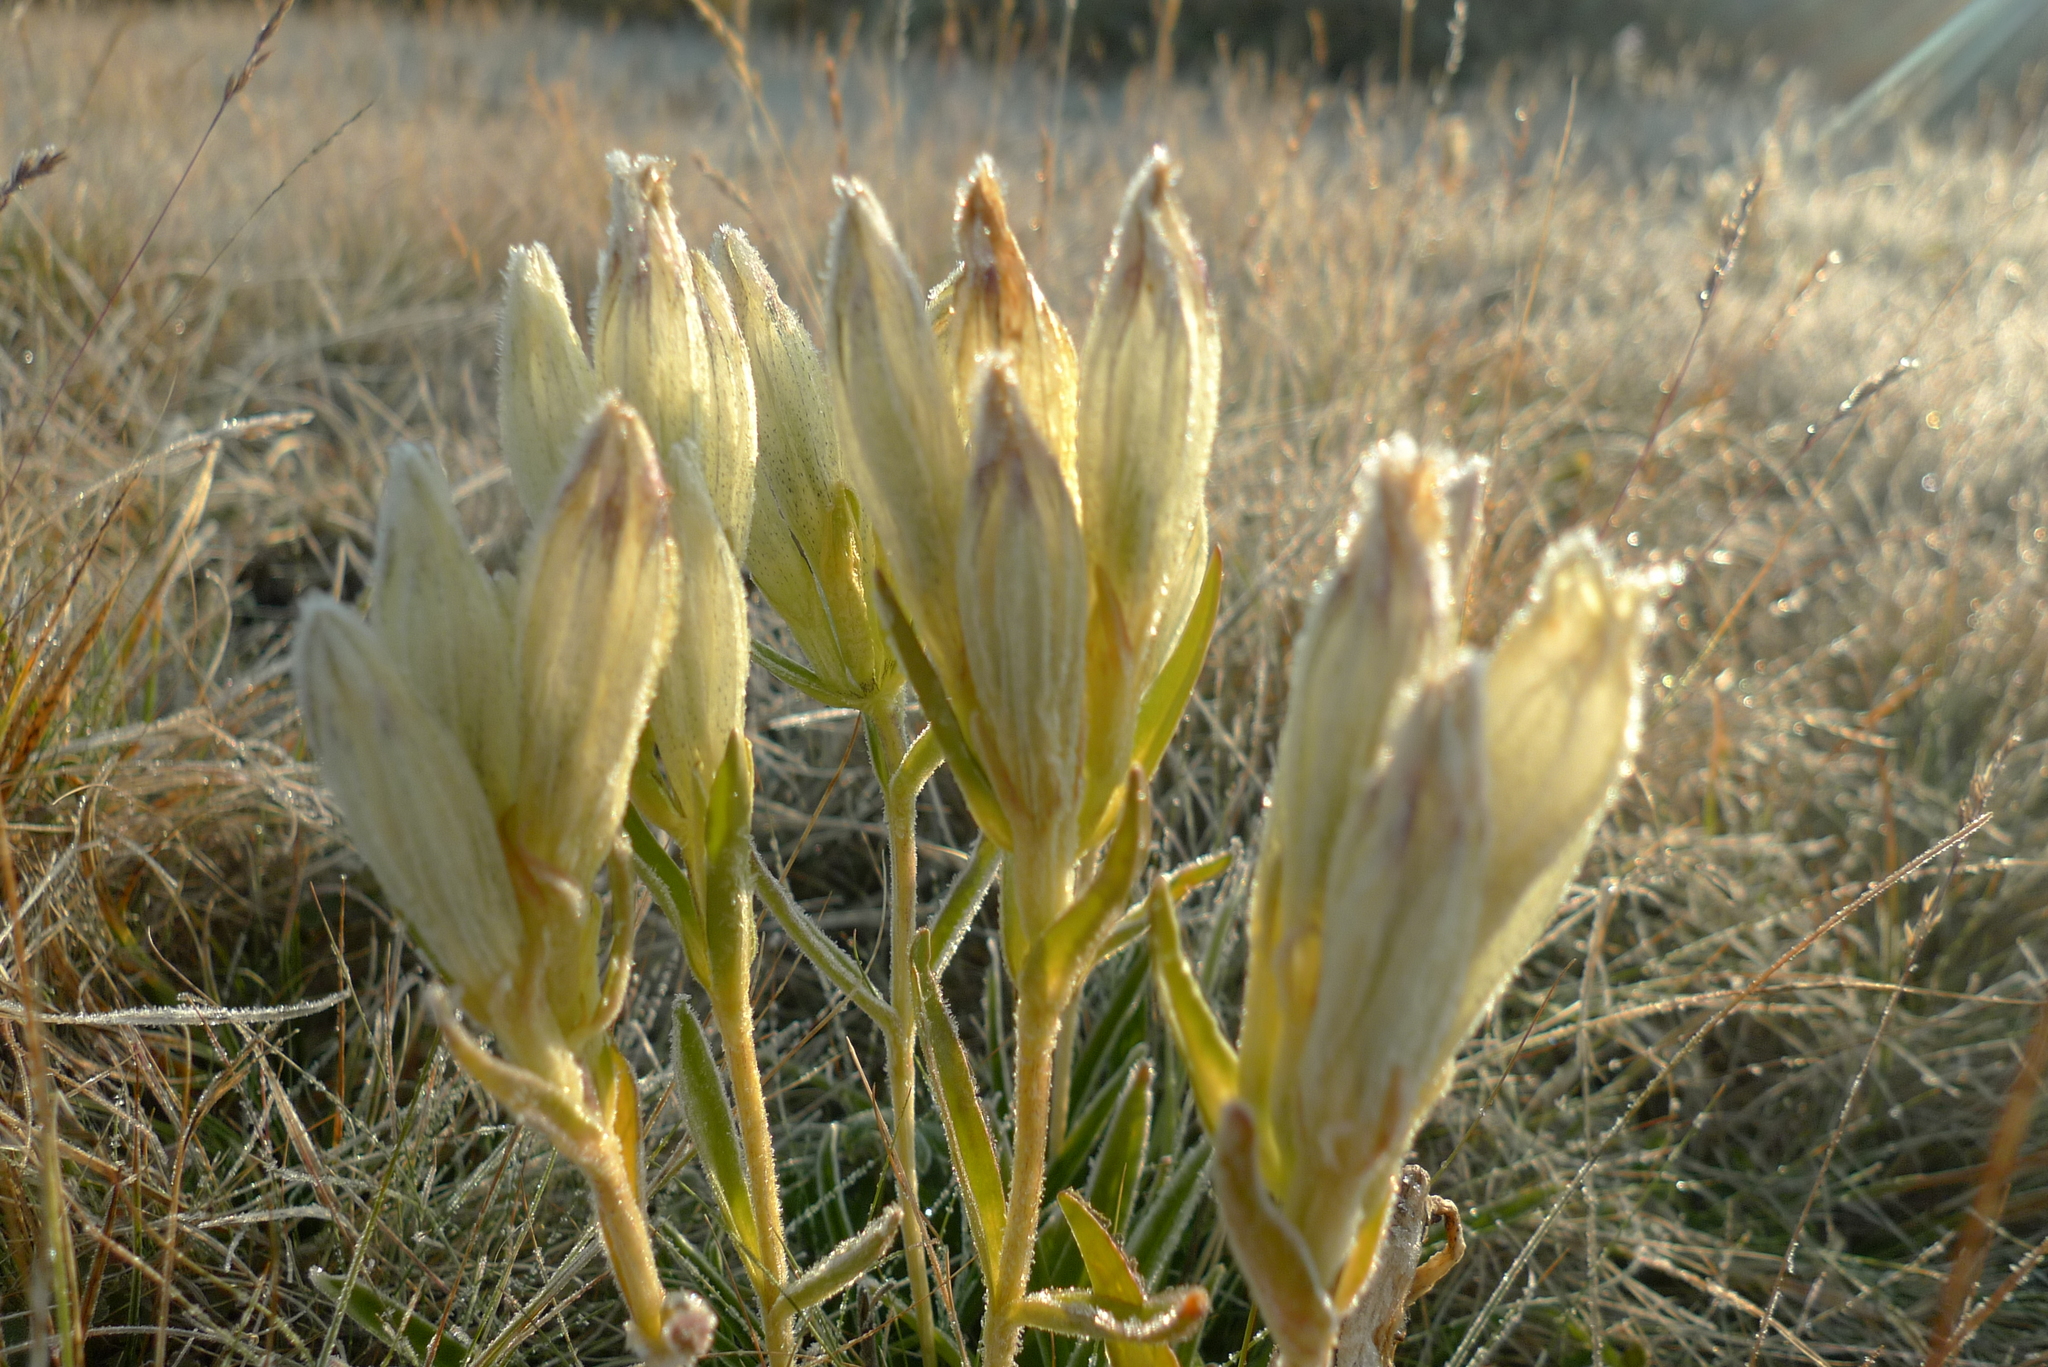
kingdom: Plantae
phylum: Tracheophyta
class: Magnoliopsida
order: Gentianales
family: Gentianaceae
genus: Gentiana
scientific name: Gentiana algida
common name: Arctic gentian
